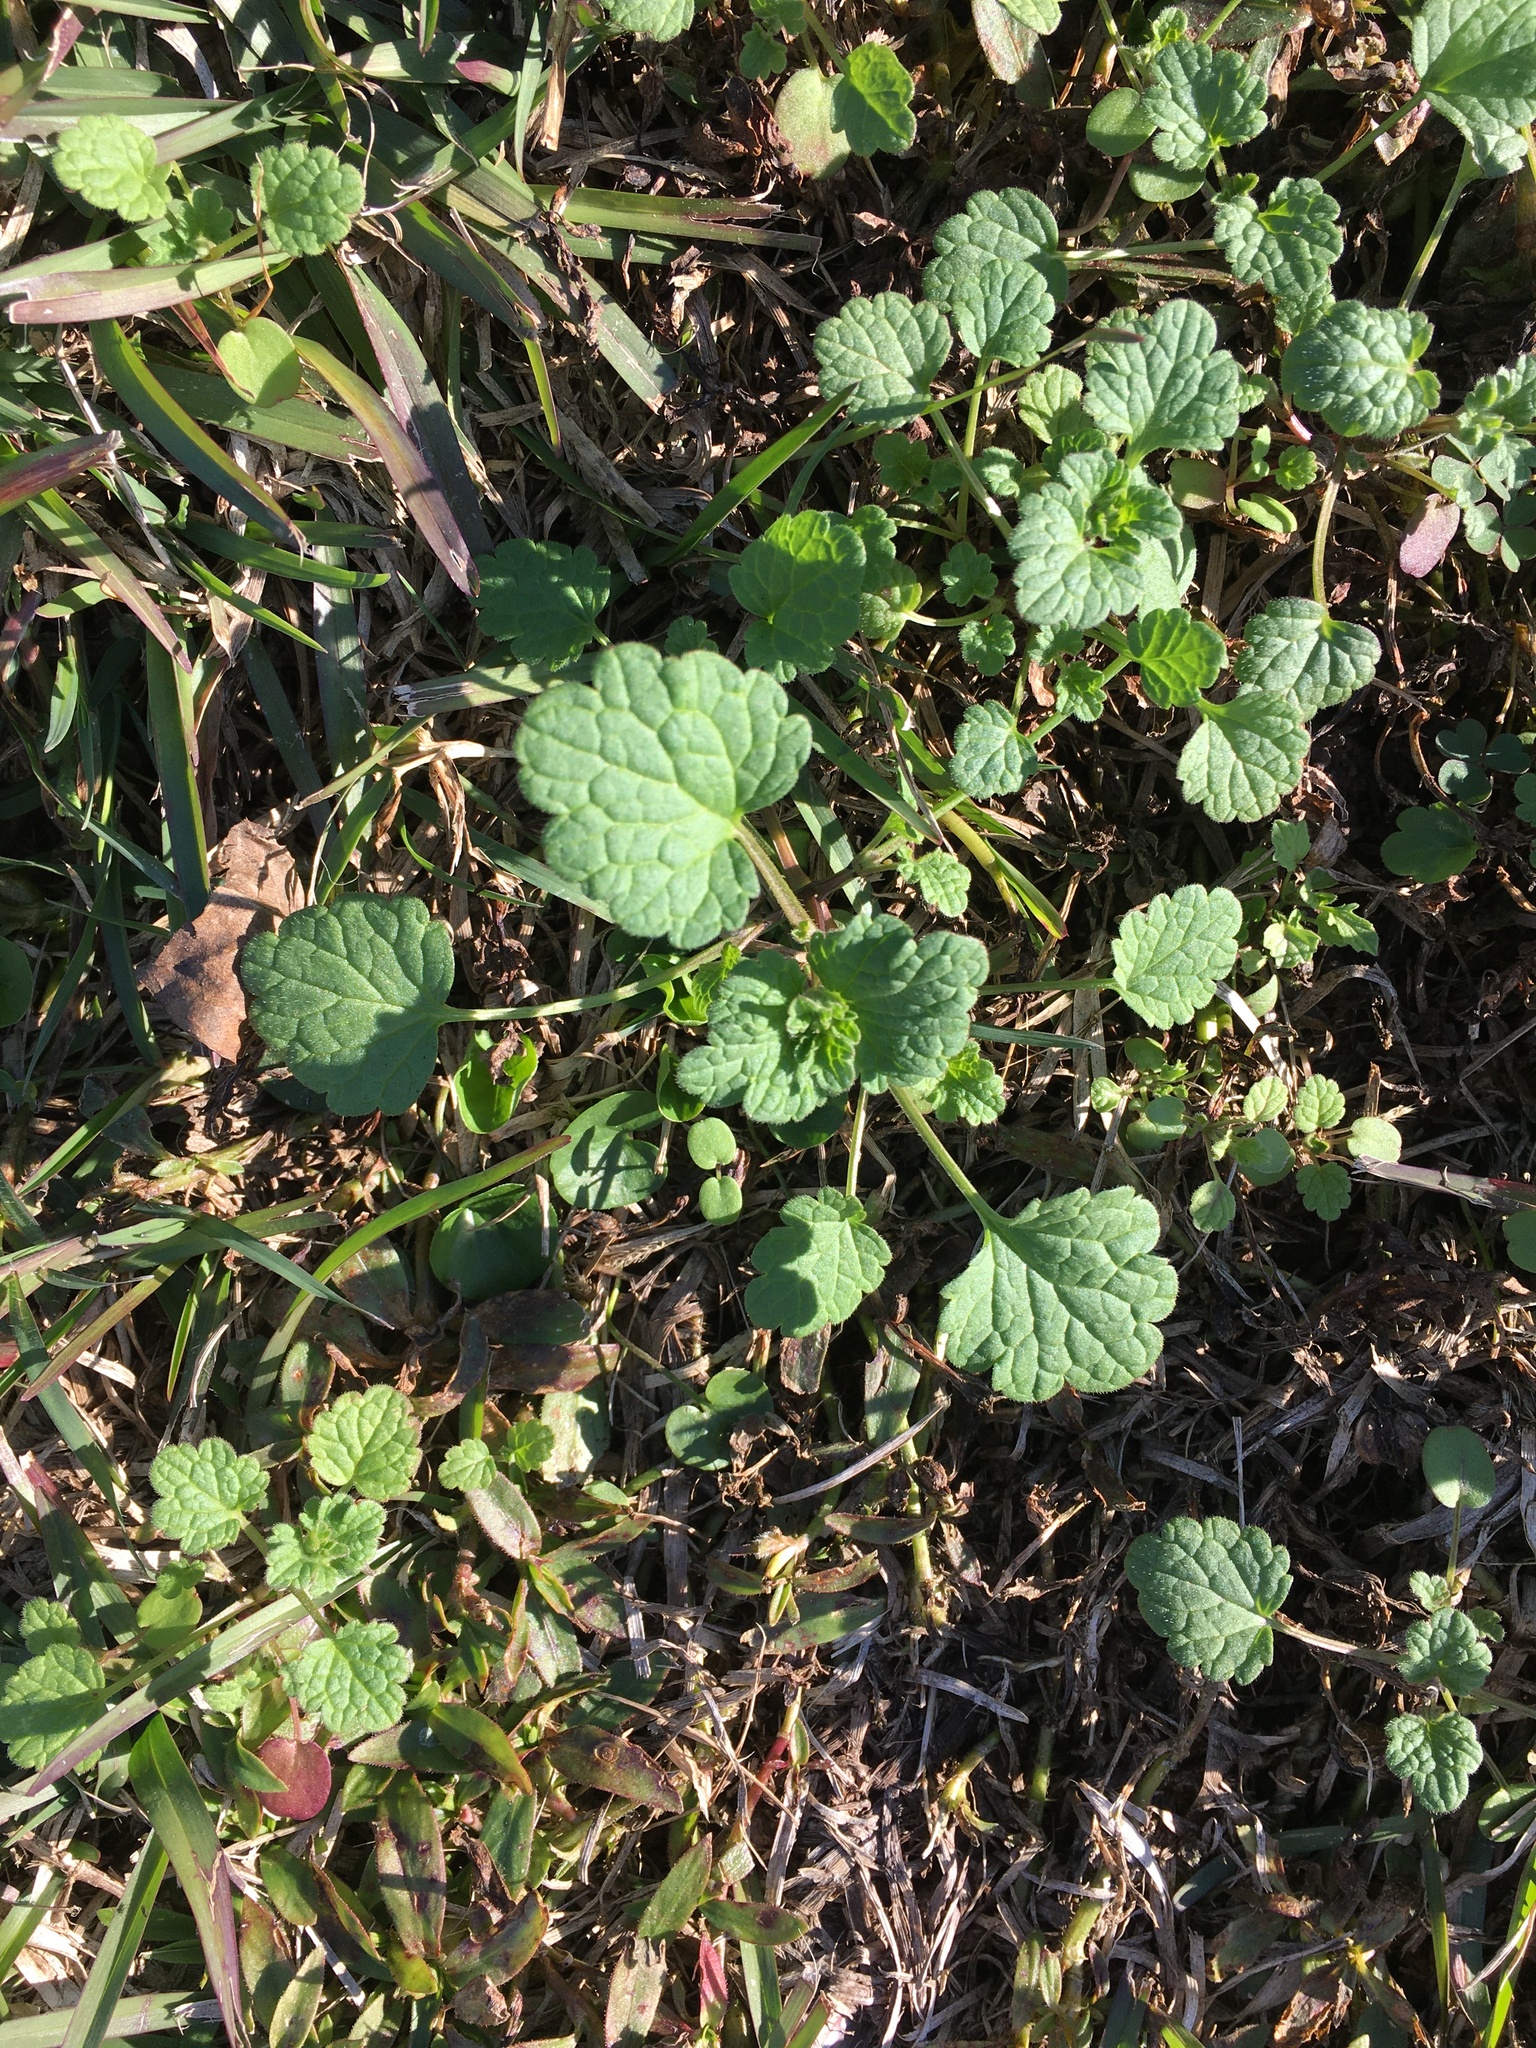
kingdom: Plantae
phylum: Tracheophyta
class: Magnoliopsida
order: Lamiales
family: Lamiaceae
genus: Lamium
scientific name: Lamium amplexicaule
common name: Henbit dead-nettle
